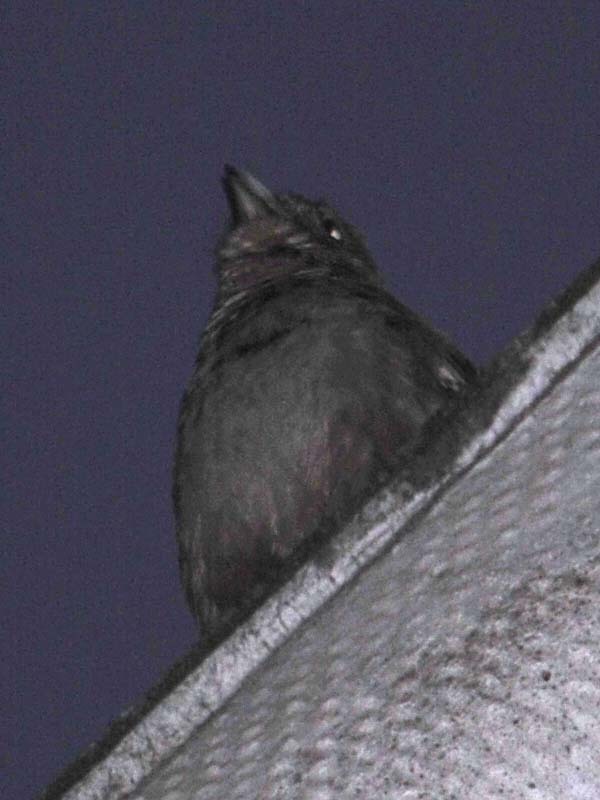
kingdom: Animalia
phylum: Chordata
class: Aves
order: Passeriformes
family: Passerellidae
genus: Melozone
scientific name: Melozone fusca
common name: Canyon towhee
